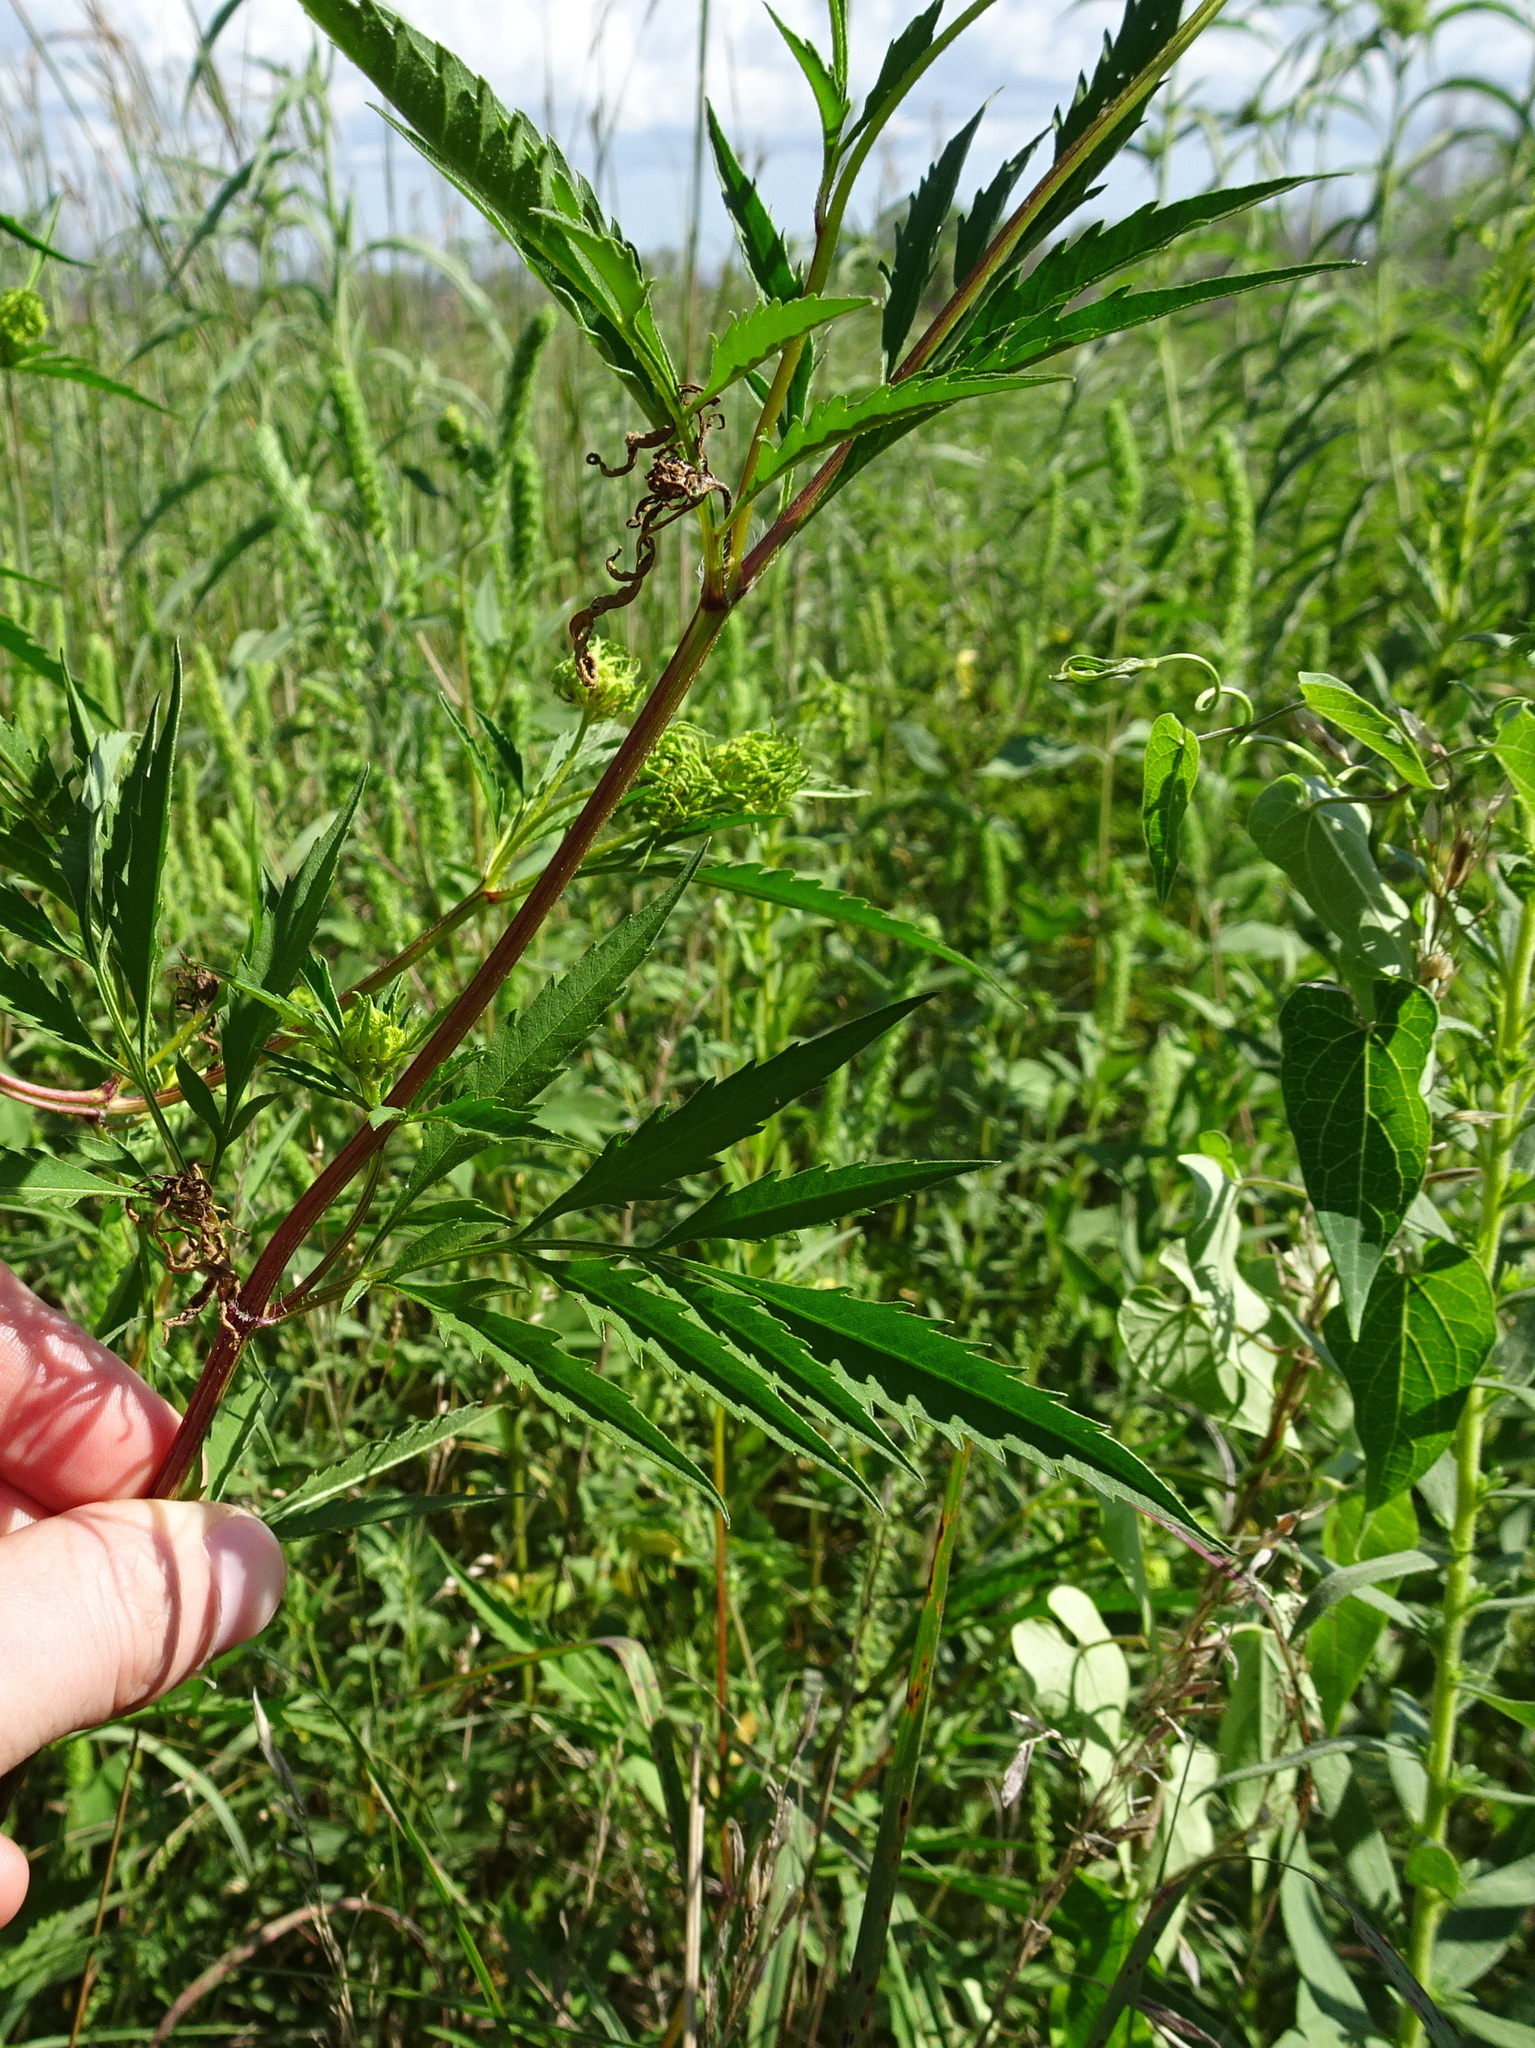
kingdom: Plantae
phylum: Tracheophyta
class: Magnoliopsida
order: Asterales
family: Asteraceae
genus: Bidens
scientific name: Bidens polylepis
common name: Awnless beggarticks
